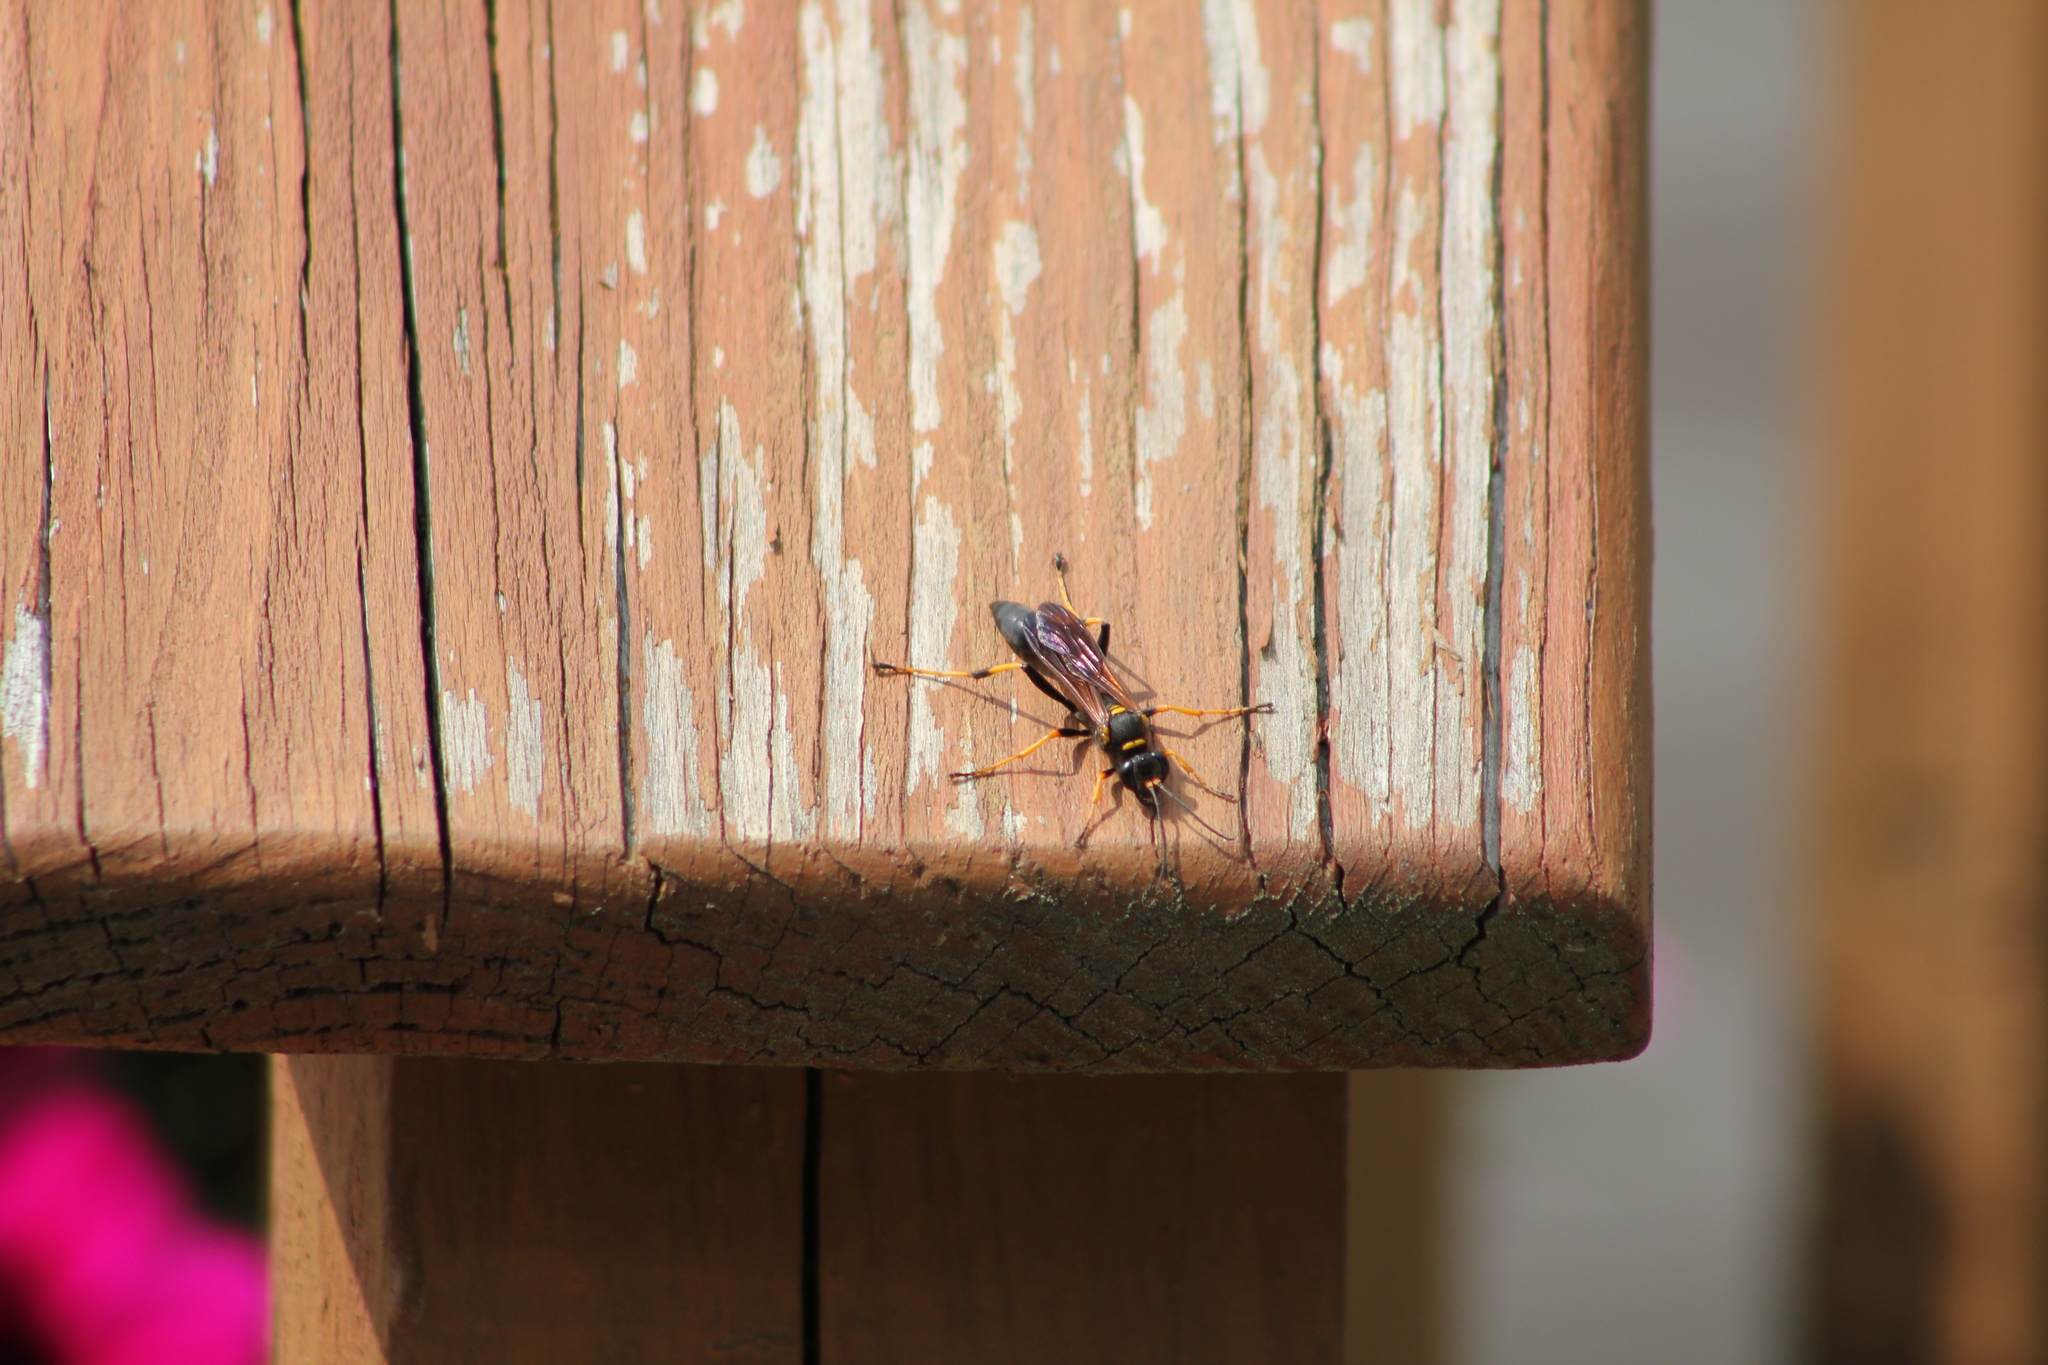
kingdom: Animalia
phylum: Arthropoda
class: Insecta
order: Hymenoptera
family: Sphecidae
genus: Sceliphron
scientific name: Sceliphron caementarium
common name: Mud dauber
